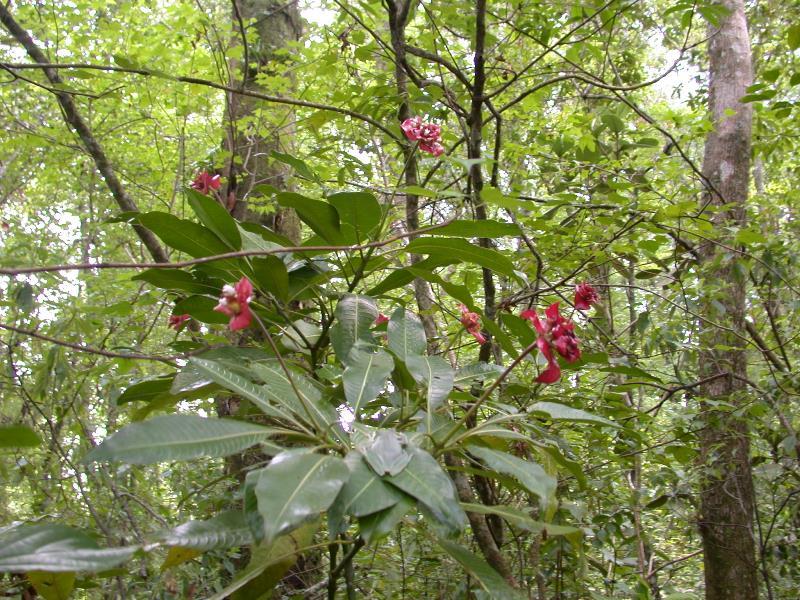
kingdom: Plantae
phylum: Tracheophyta
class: Magnoliopsida
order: Gentianales
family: Rubiaceae
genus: Palicourea
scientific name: Palicourea elata
